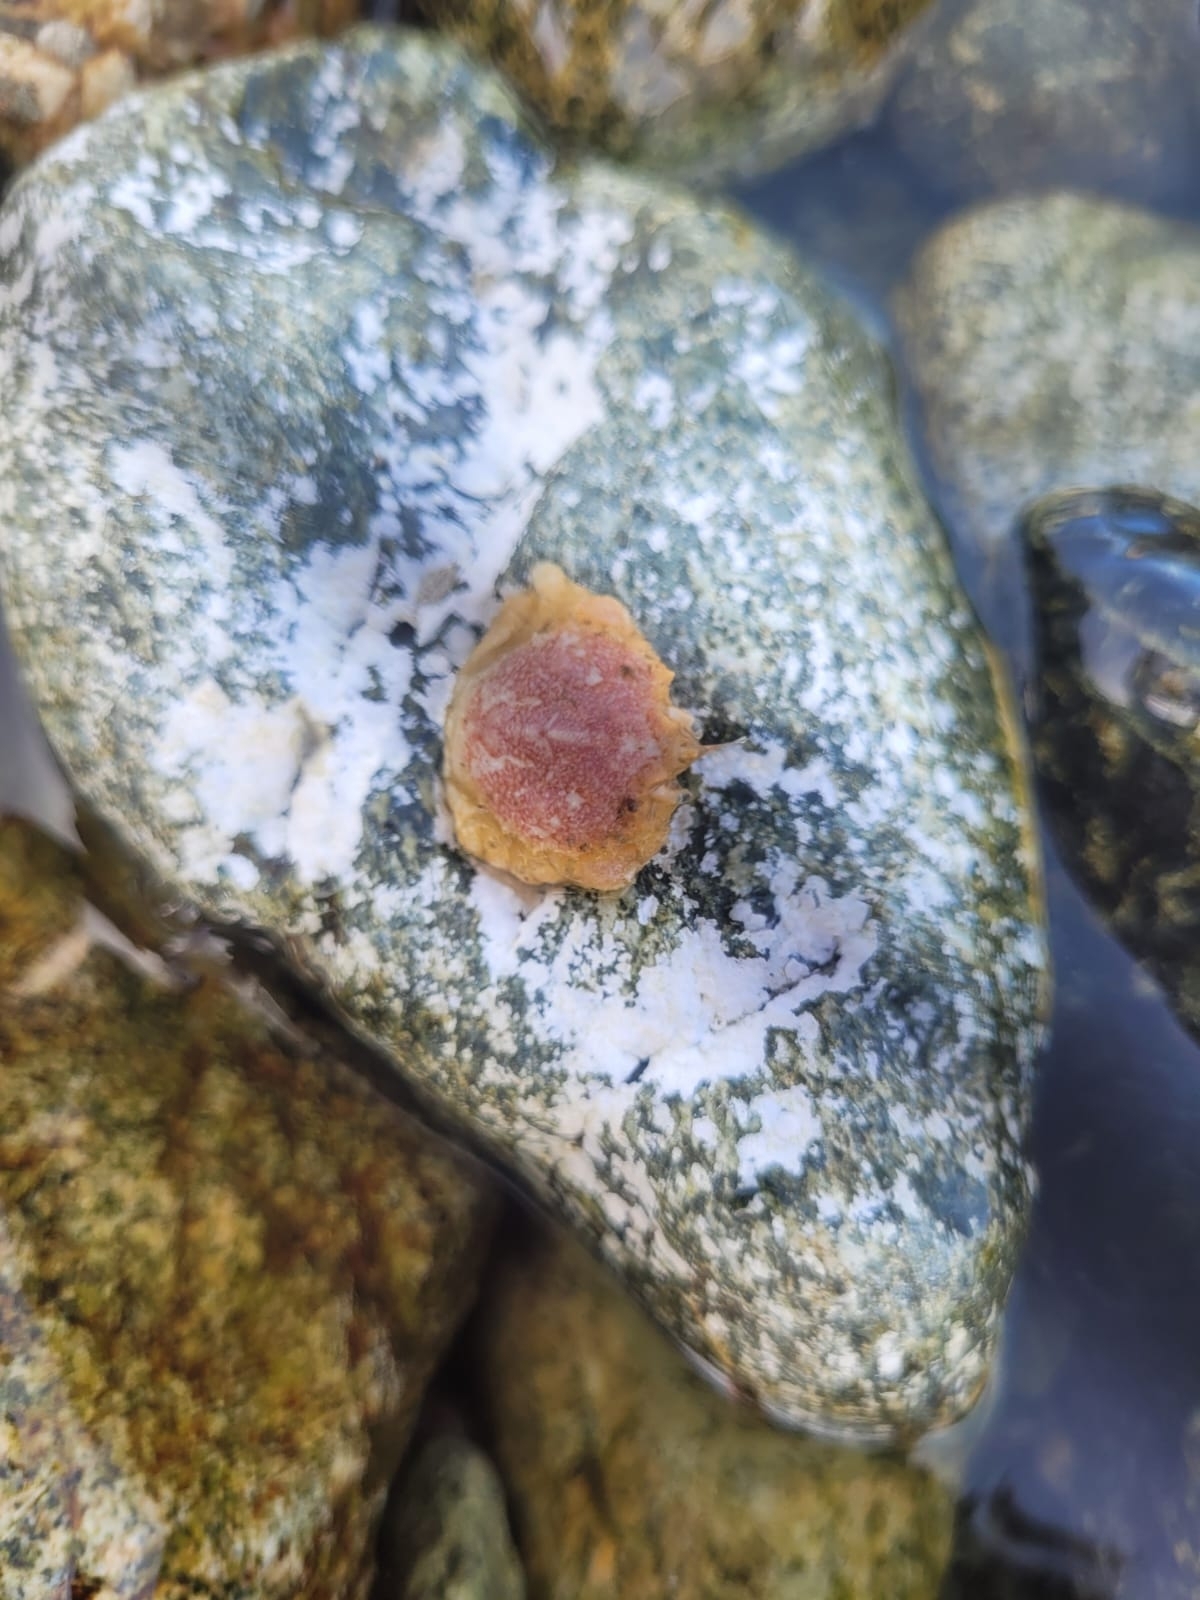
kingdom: Animalia
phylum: Arthropoda
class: Malacostraca
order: Decapoda
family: Trichopeltariidae
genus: Peltarion
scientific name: Peltarion spinulosum
